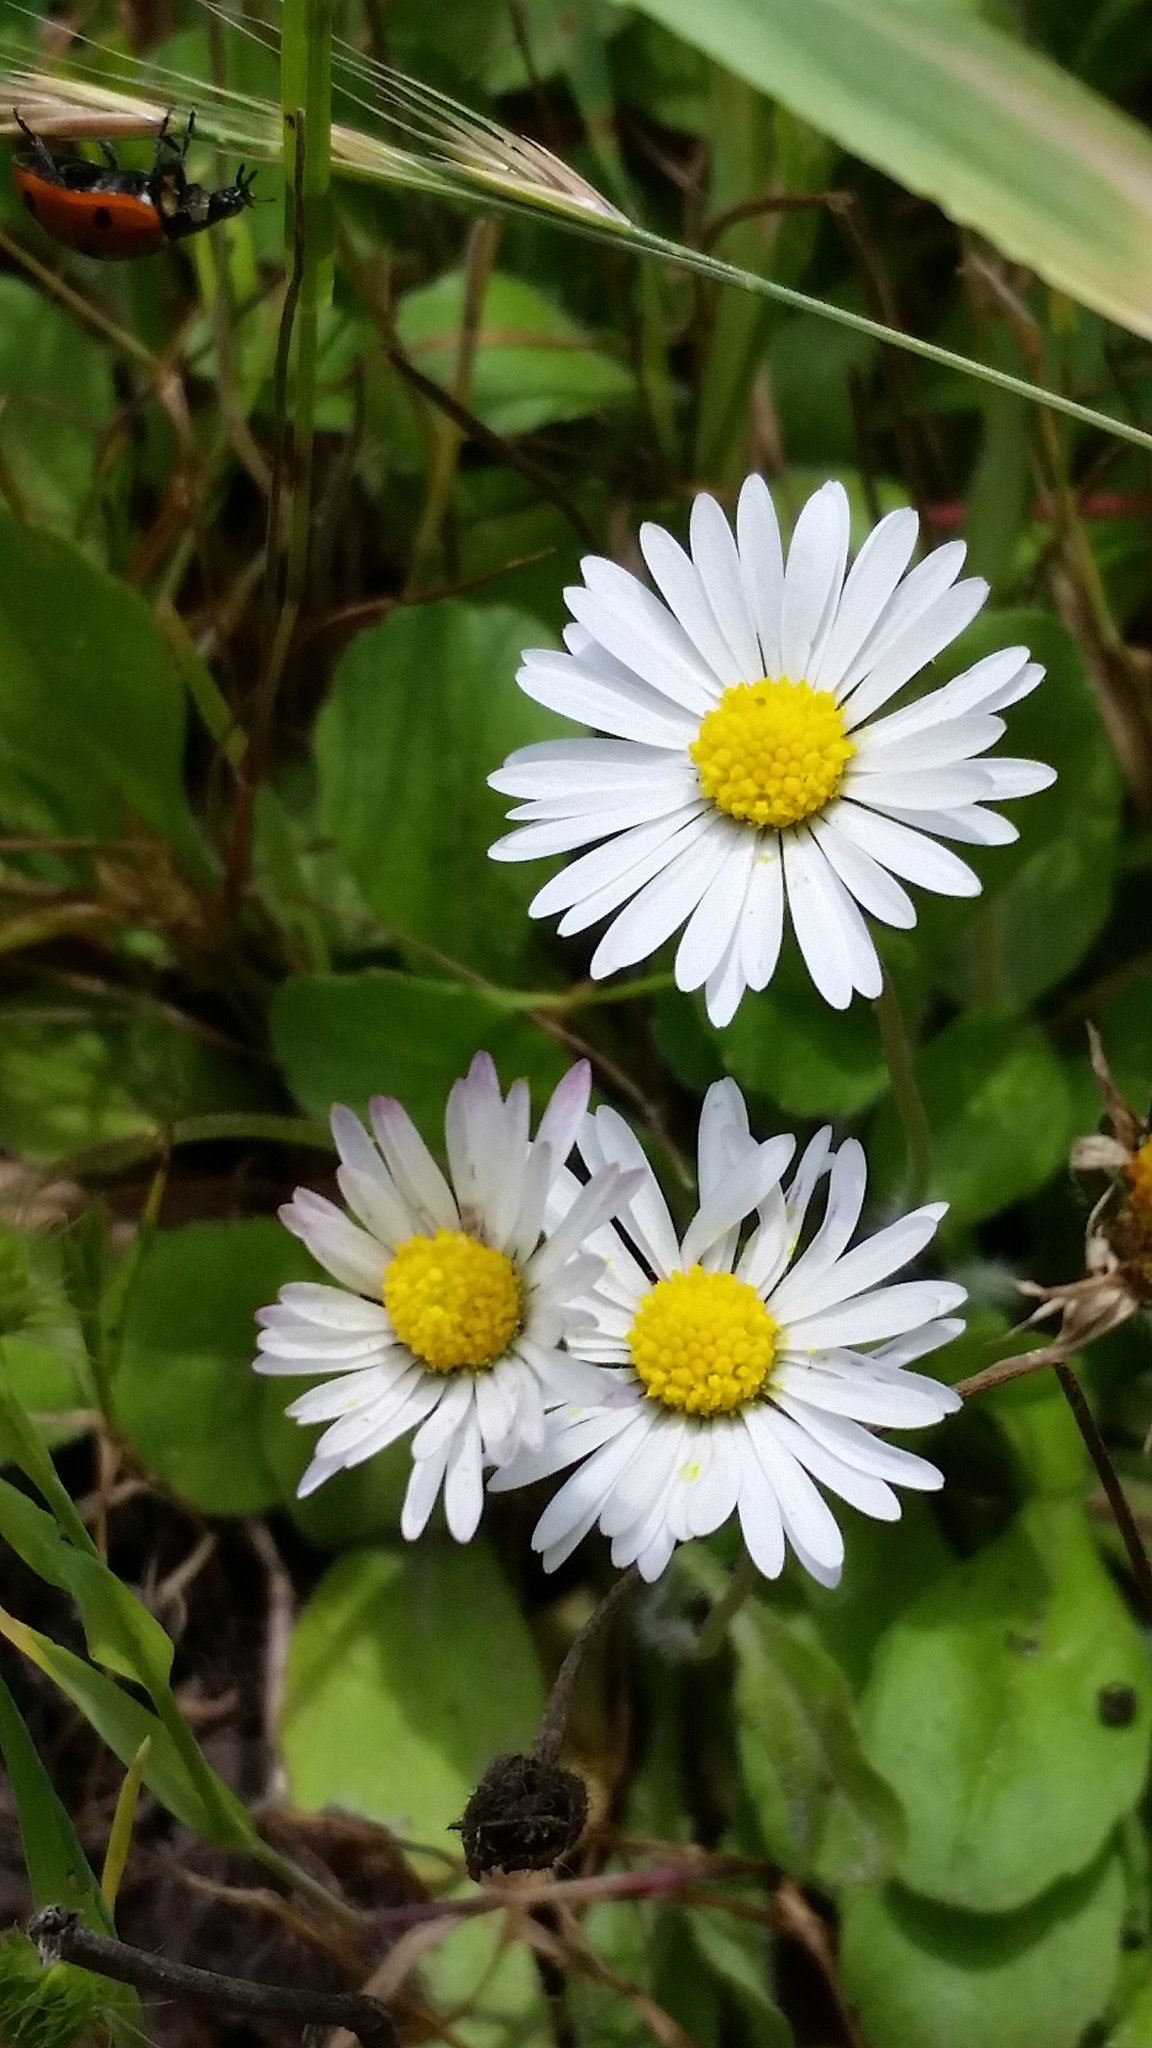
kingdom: Plantae
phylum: Tracheophyta
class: Magnoliopsida
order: Asterales
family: Asteraceae
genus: Bellis
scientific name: Bellis perennis
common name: Lawndaisy
